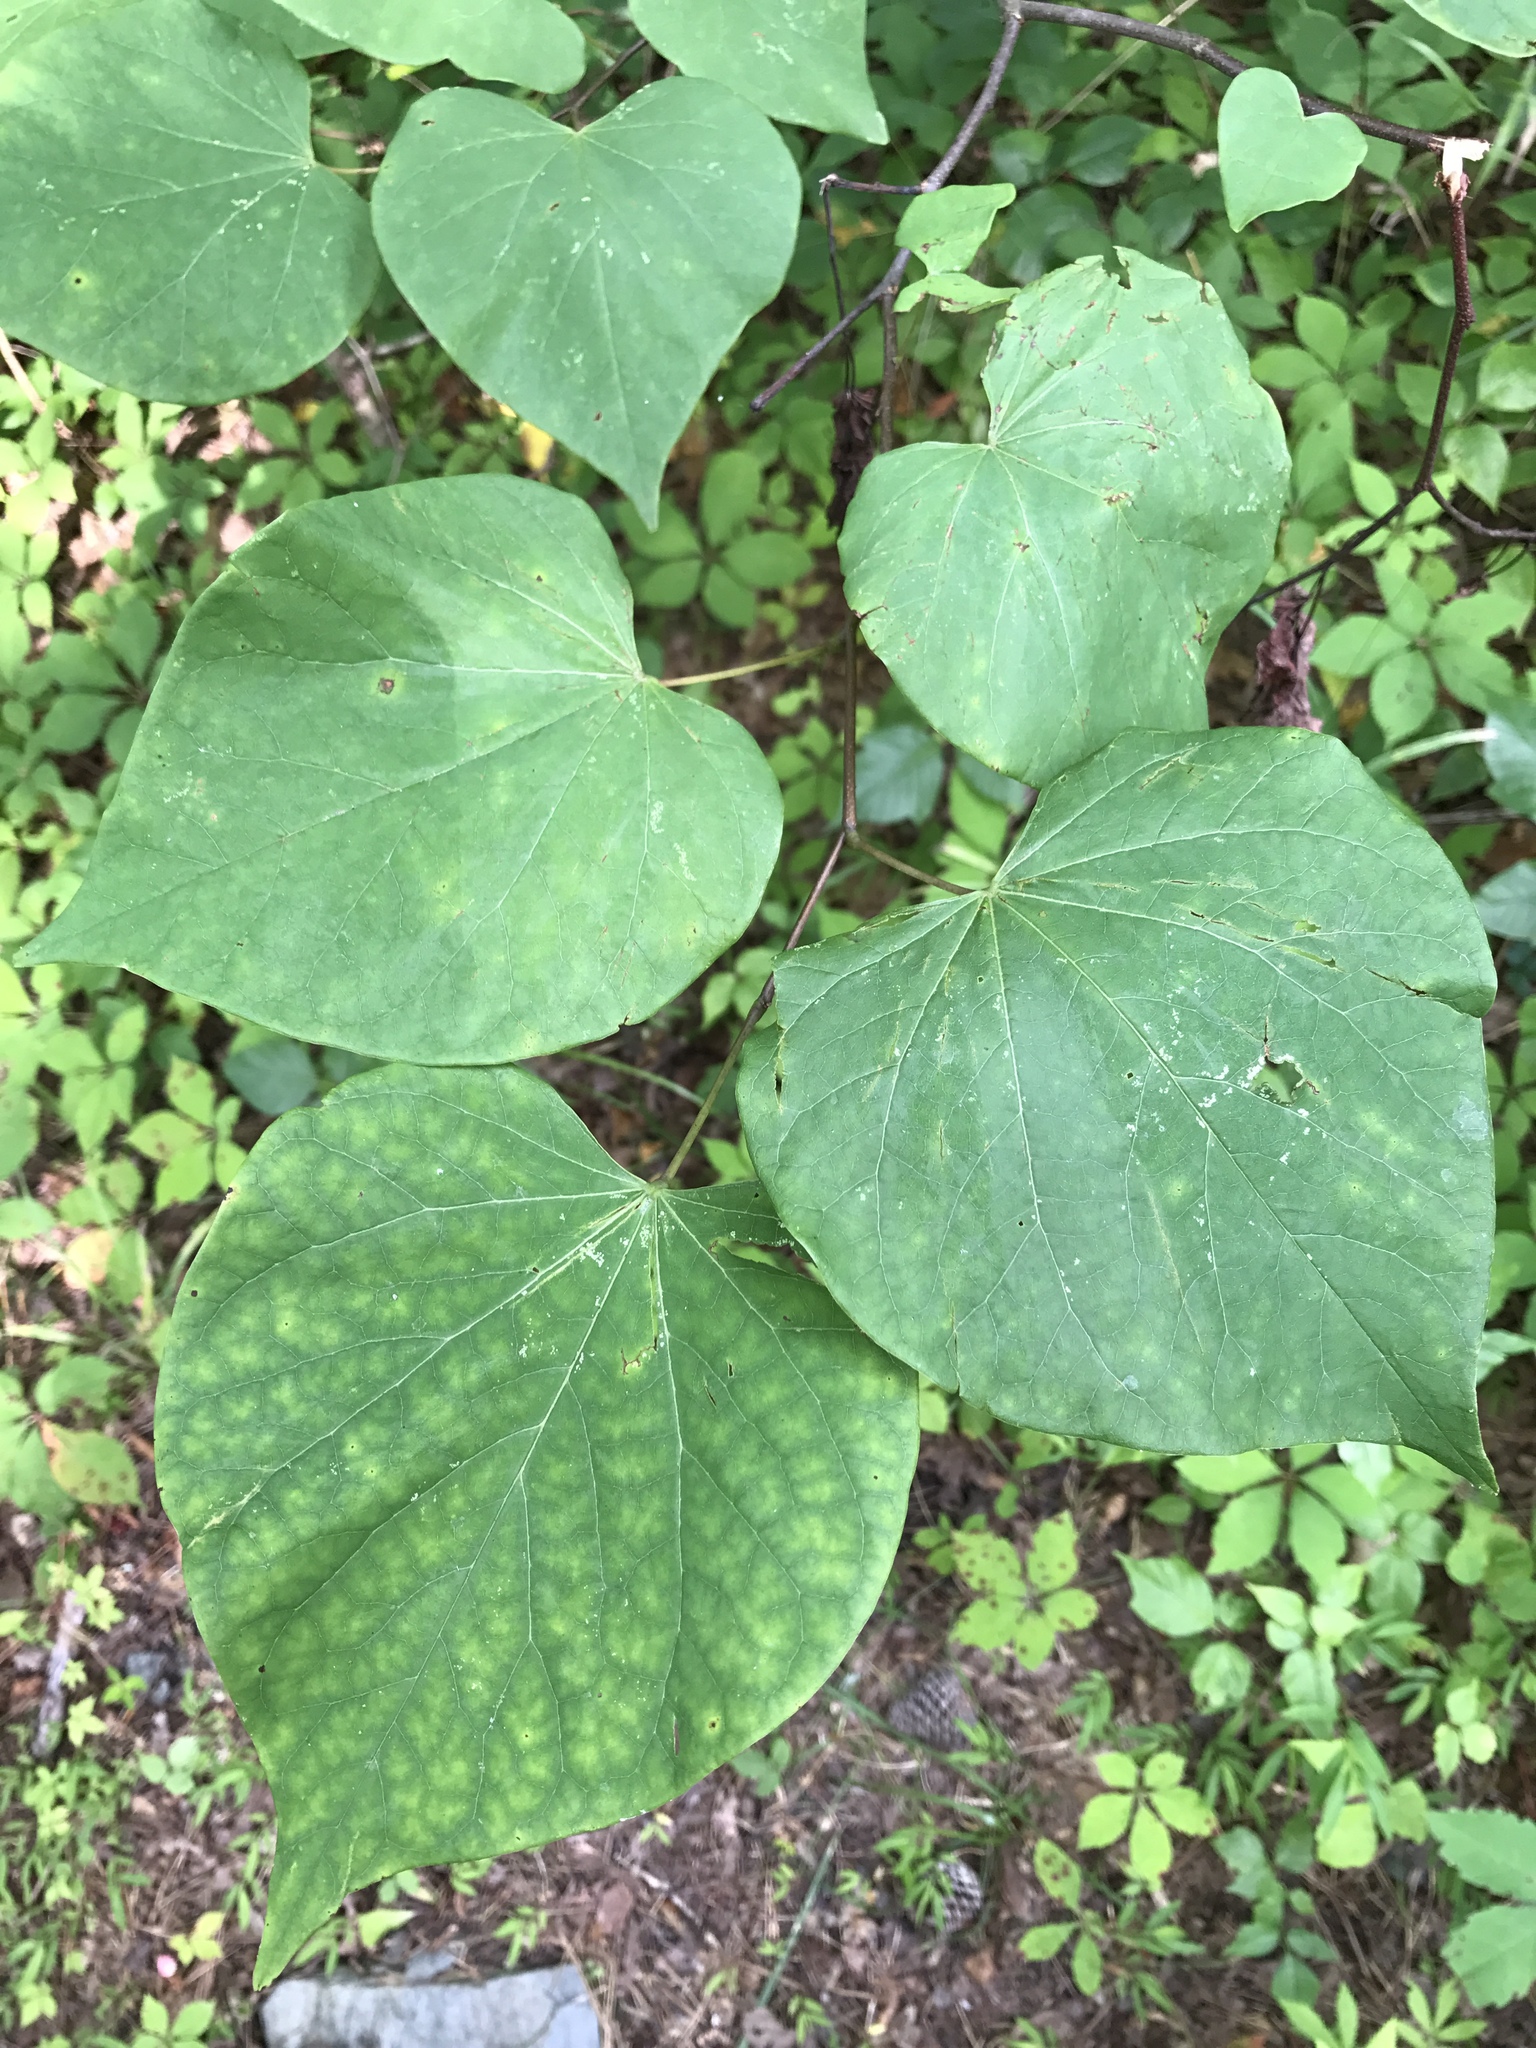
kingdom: Plantae
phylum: Tracheophyta
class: Magnoliopsida
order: Fabales
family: Fabaceae
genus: Cercis
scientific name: Cercis canadensis
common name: Eastern redbud
